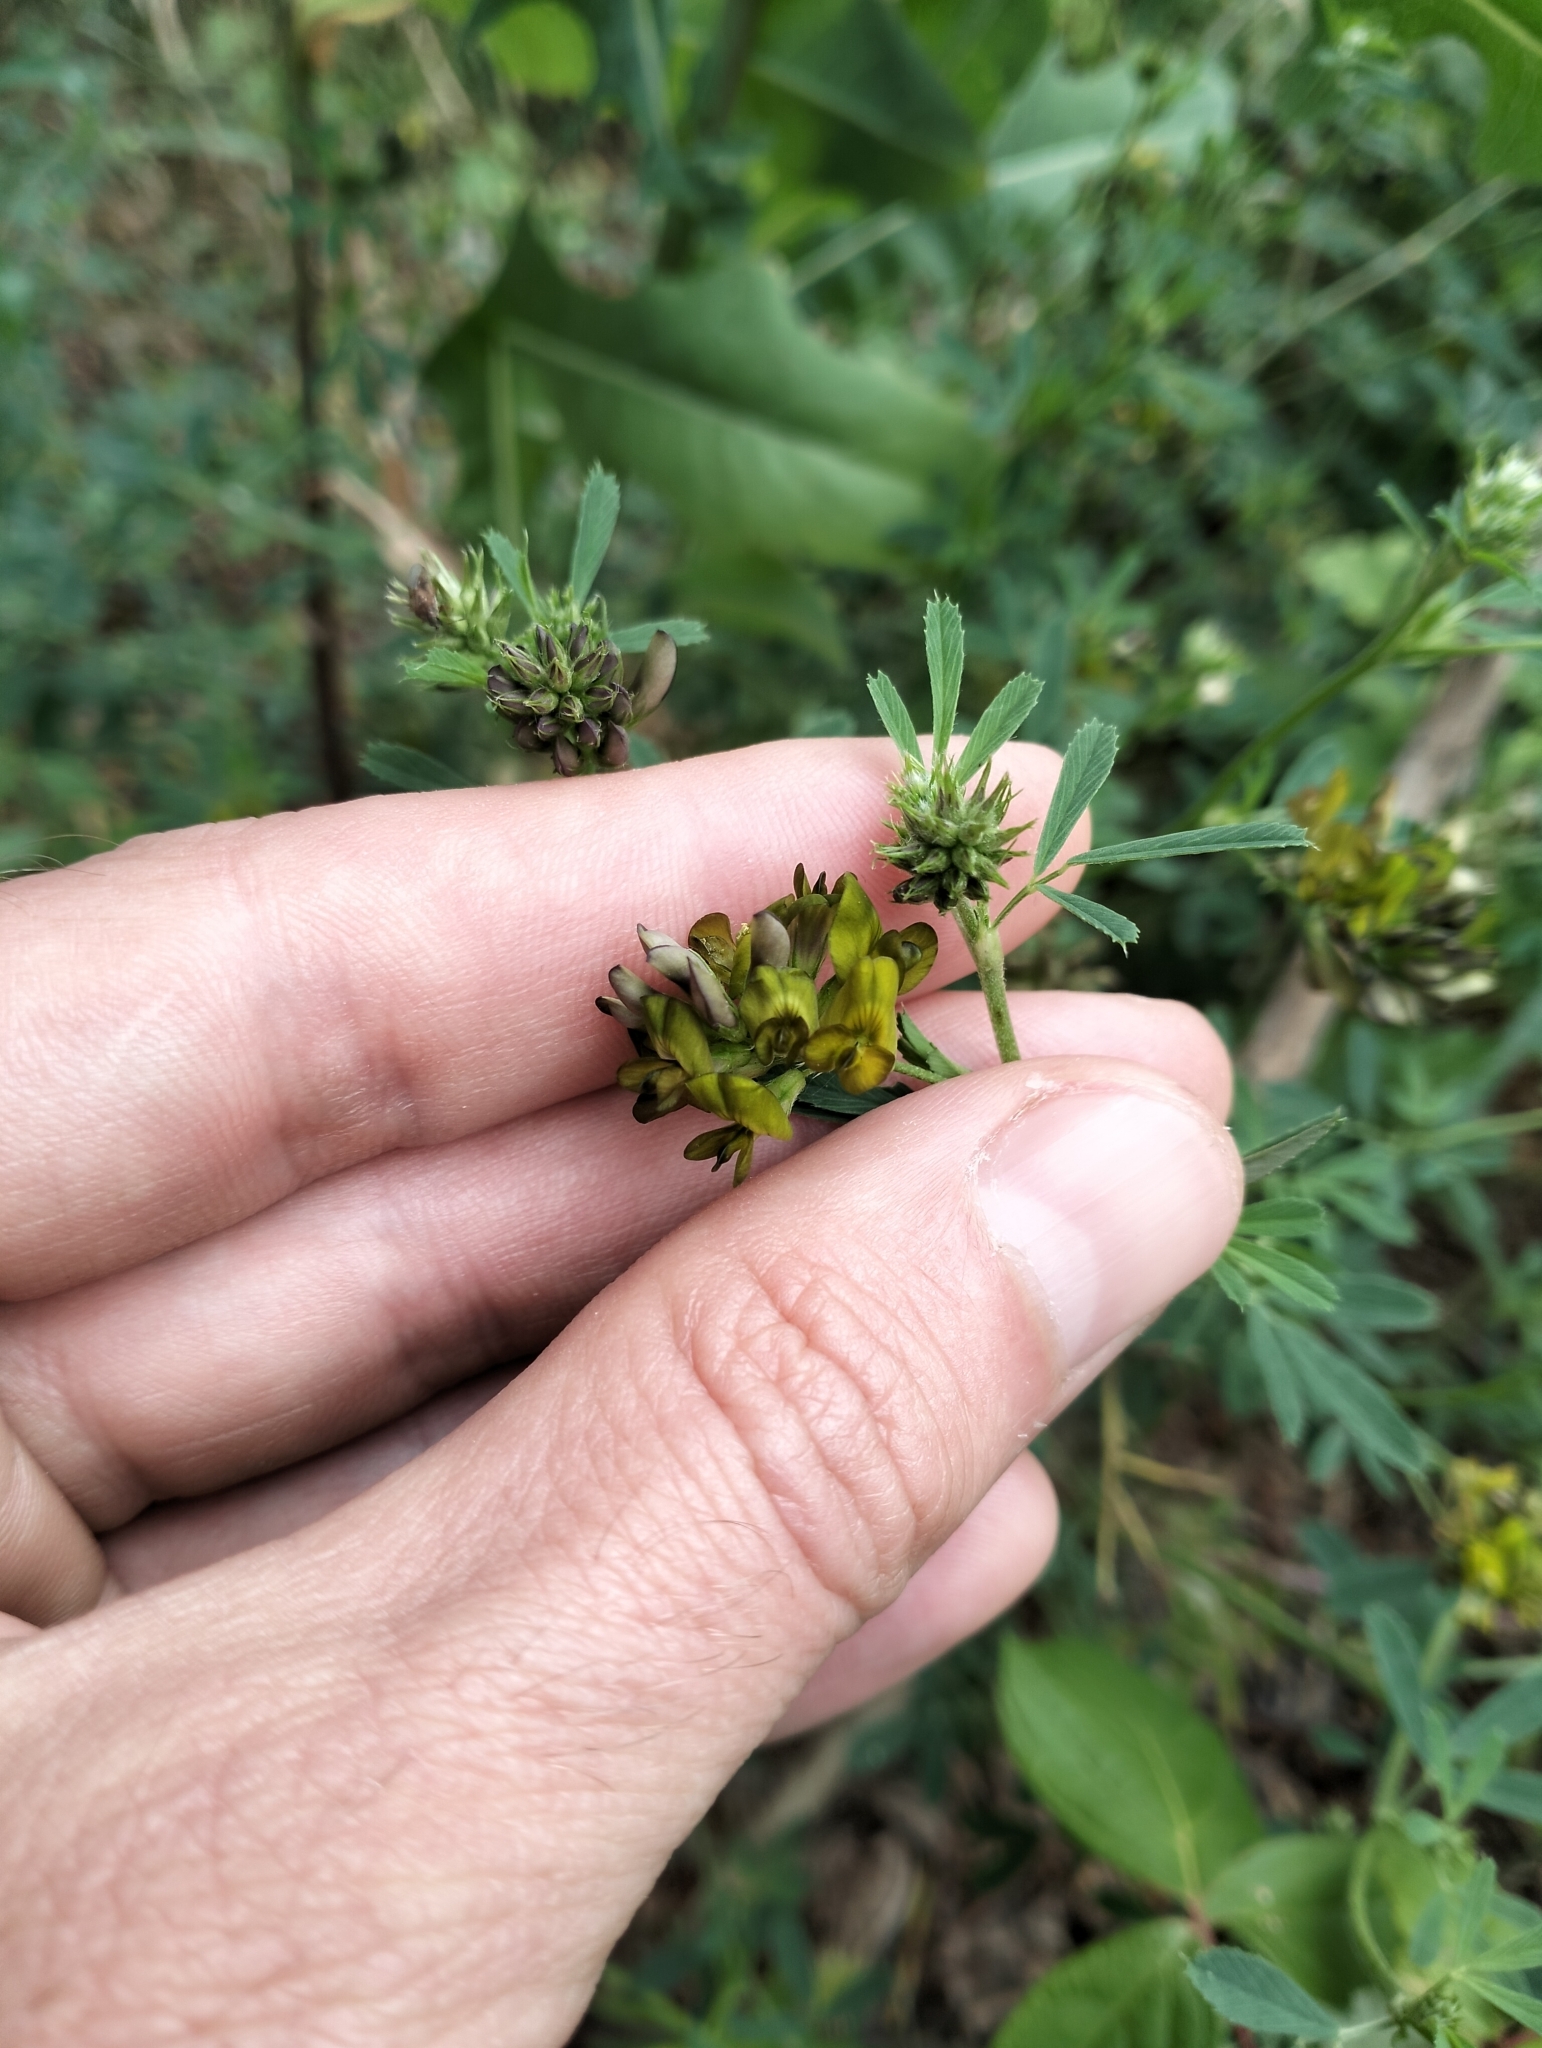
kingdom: Plantae
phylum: Tracheophyta
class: Magnoliopsida
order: Fabales
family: Fabaceae
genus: Medicago
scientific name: Medicago varia
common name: Sand lucerne
